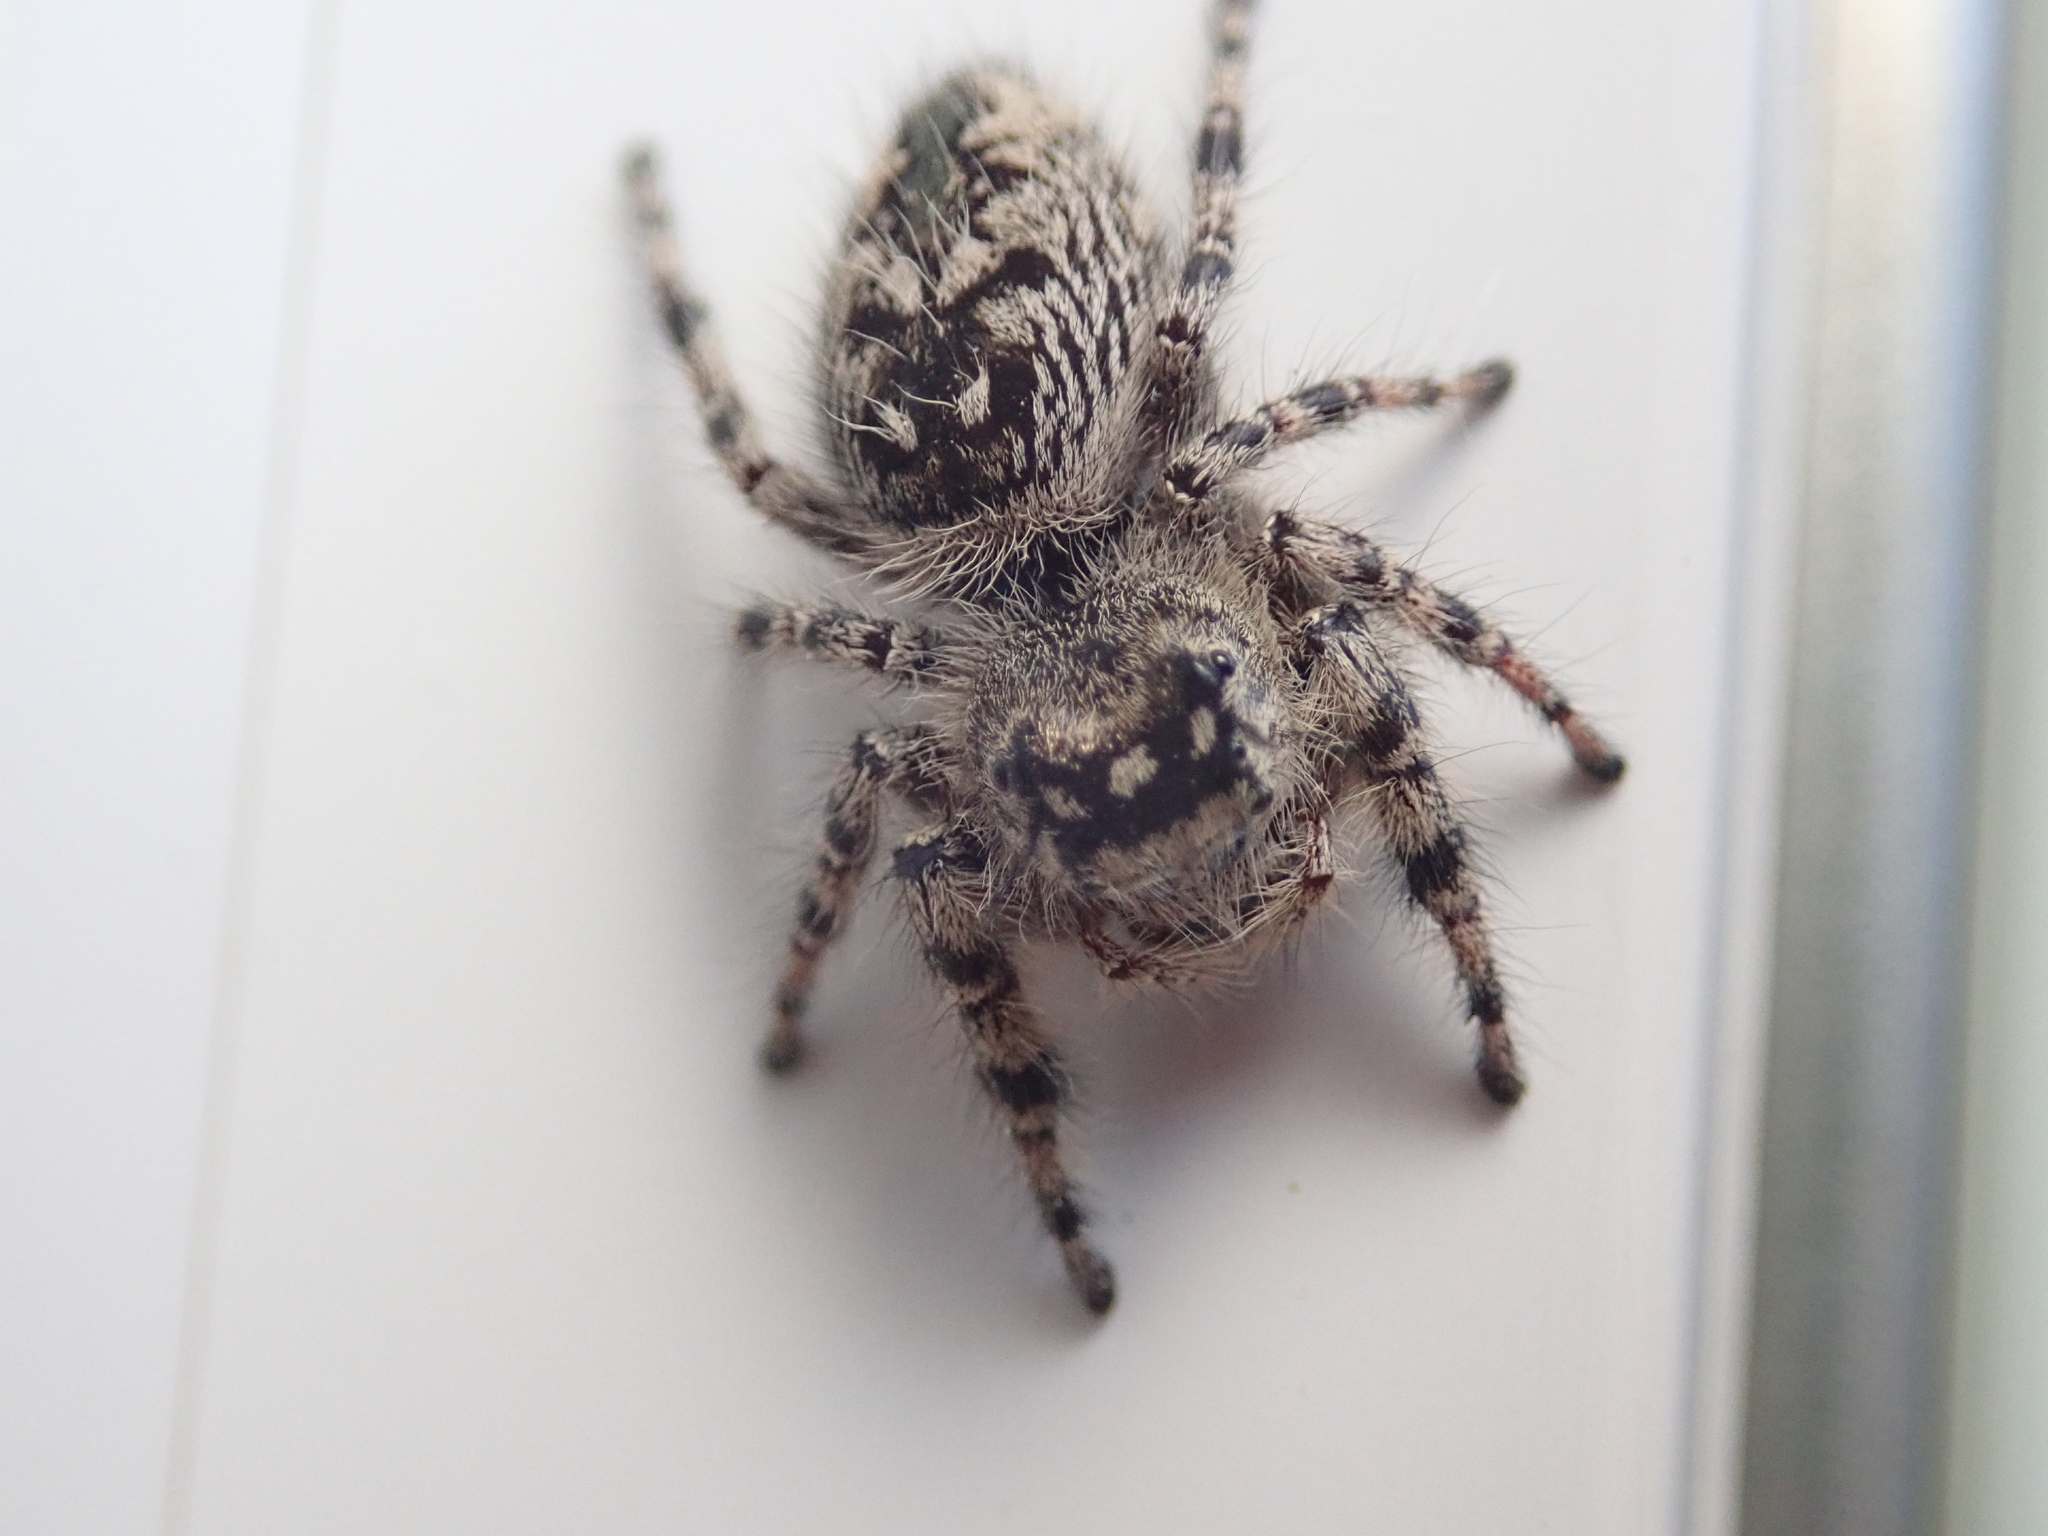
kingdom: Animalia
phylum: Arthropoda
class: Arachnida
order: Araneae
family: Salticidae
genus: Phidippus
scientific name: Phidippus otiosus
